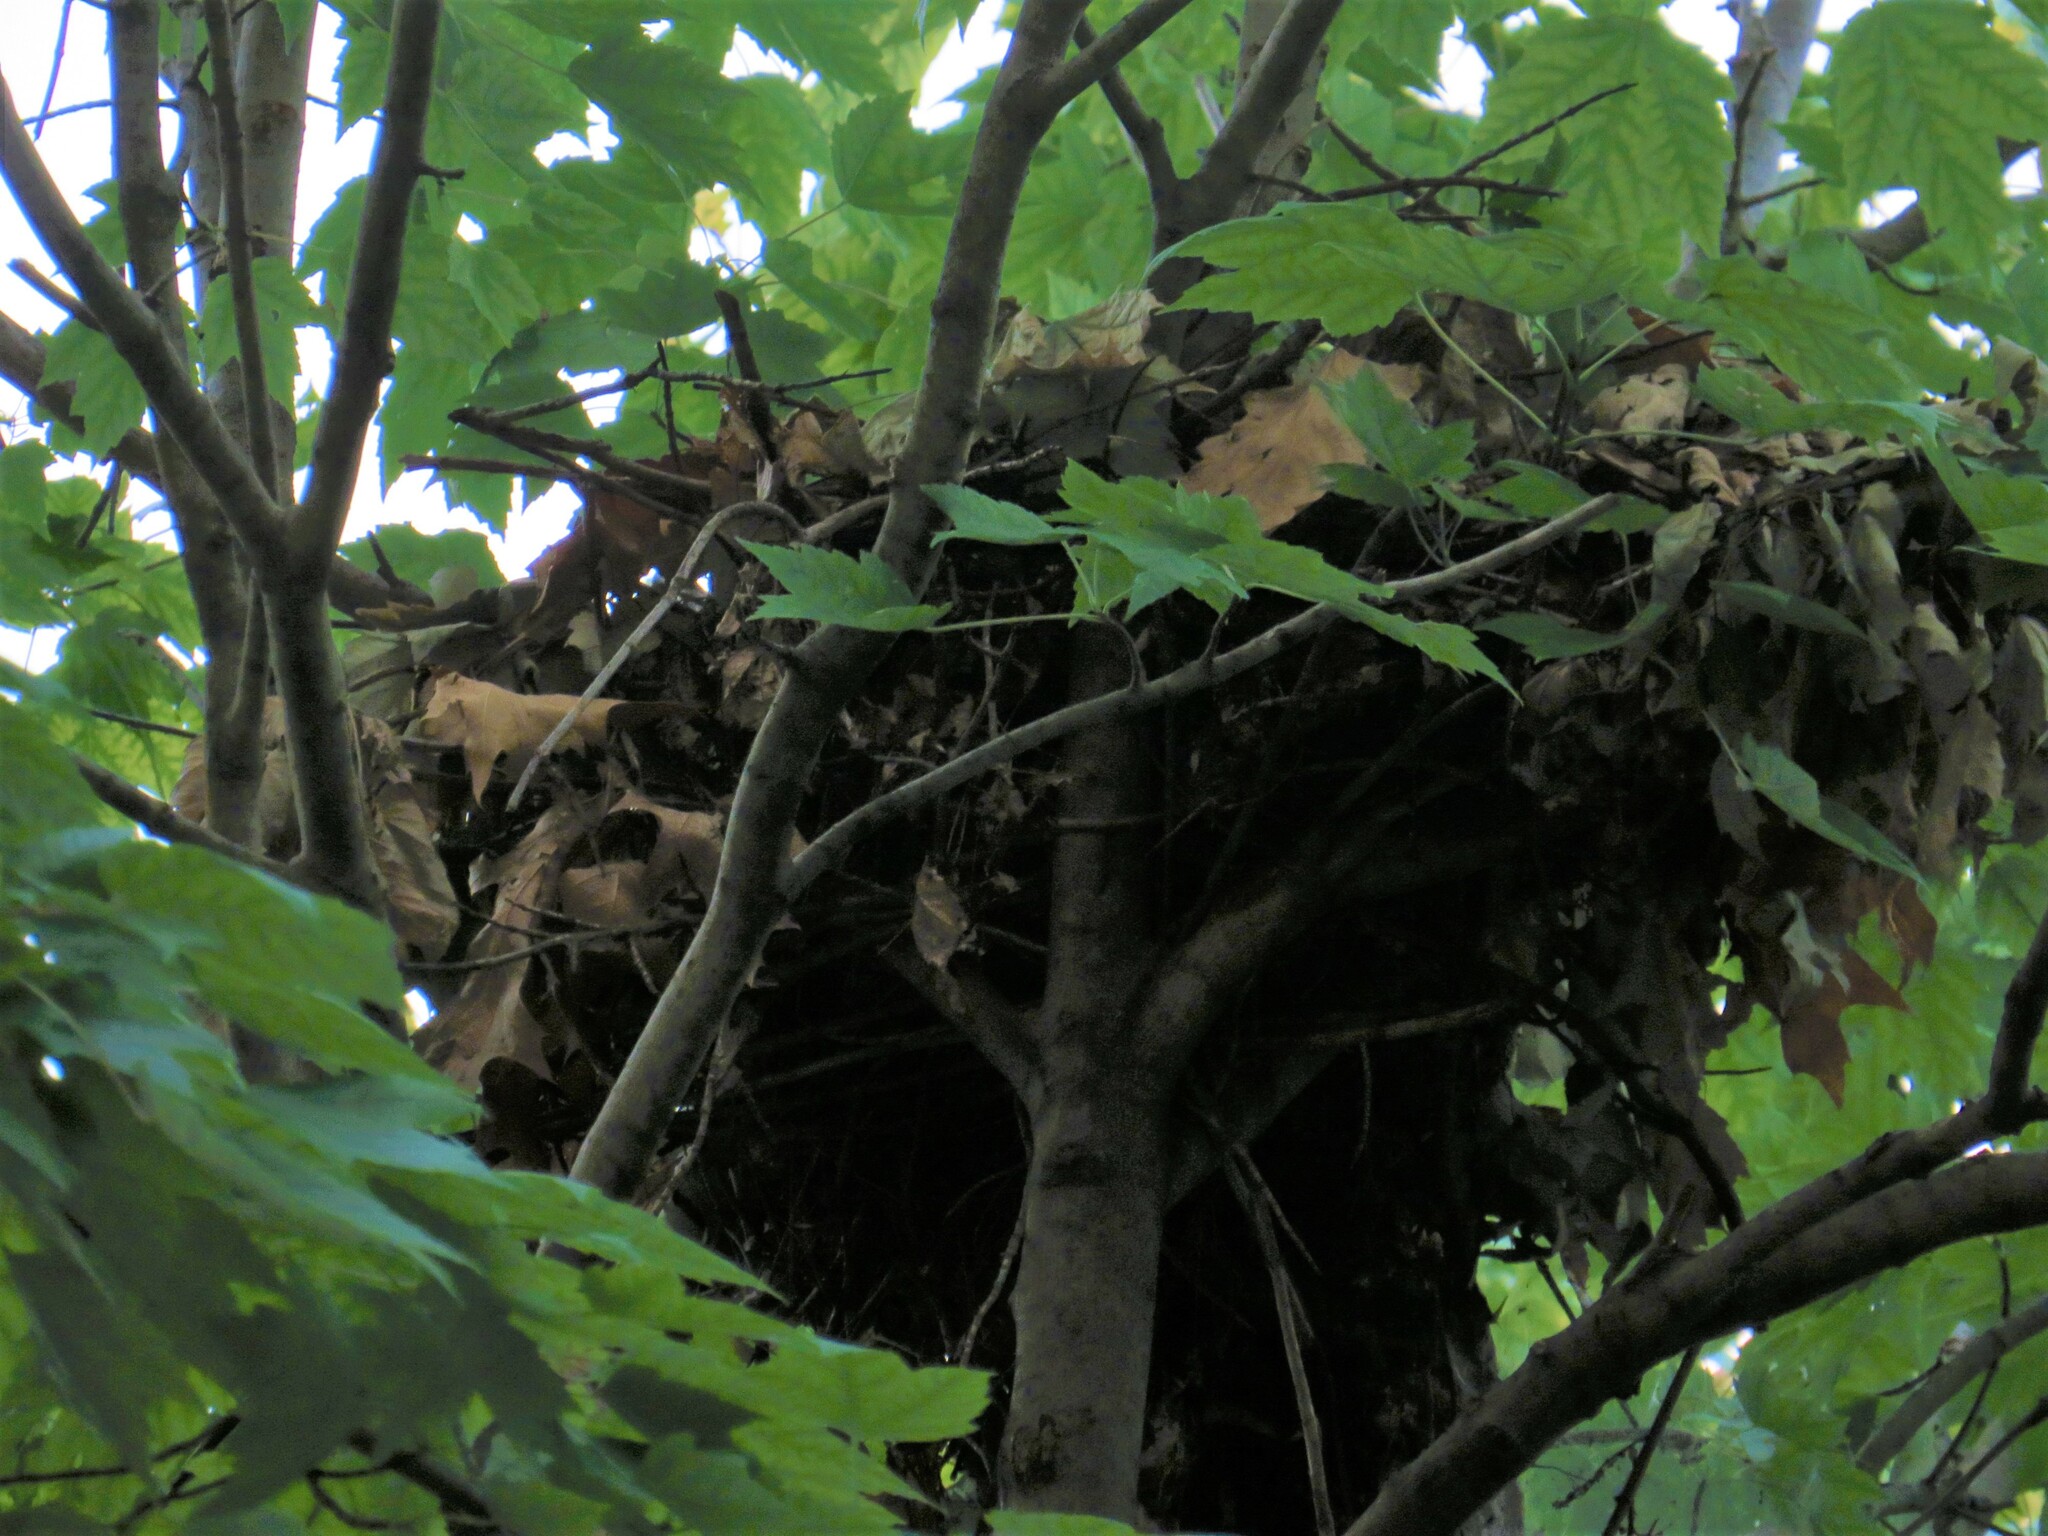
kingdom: Animalia
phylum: Chordata
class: Aves
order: Accipitriformes
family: Accipitridae
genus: Accipiter
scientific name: Accipiter cooperii
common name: Cooper's hawk
